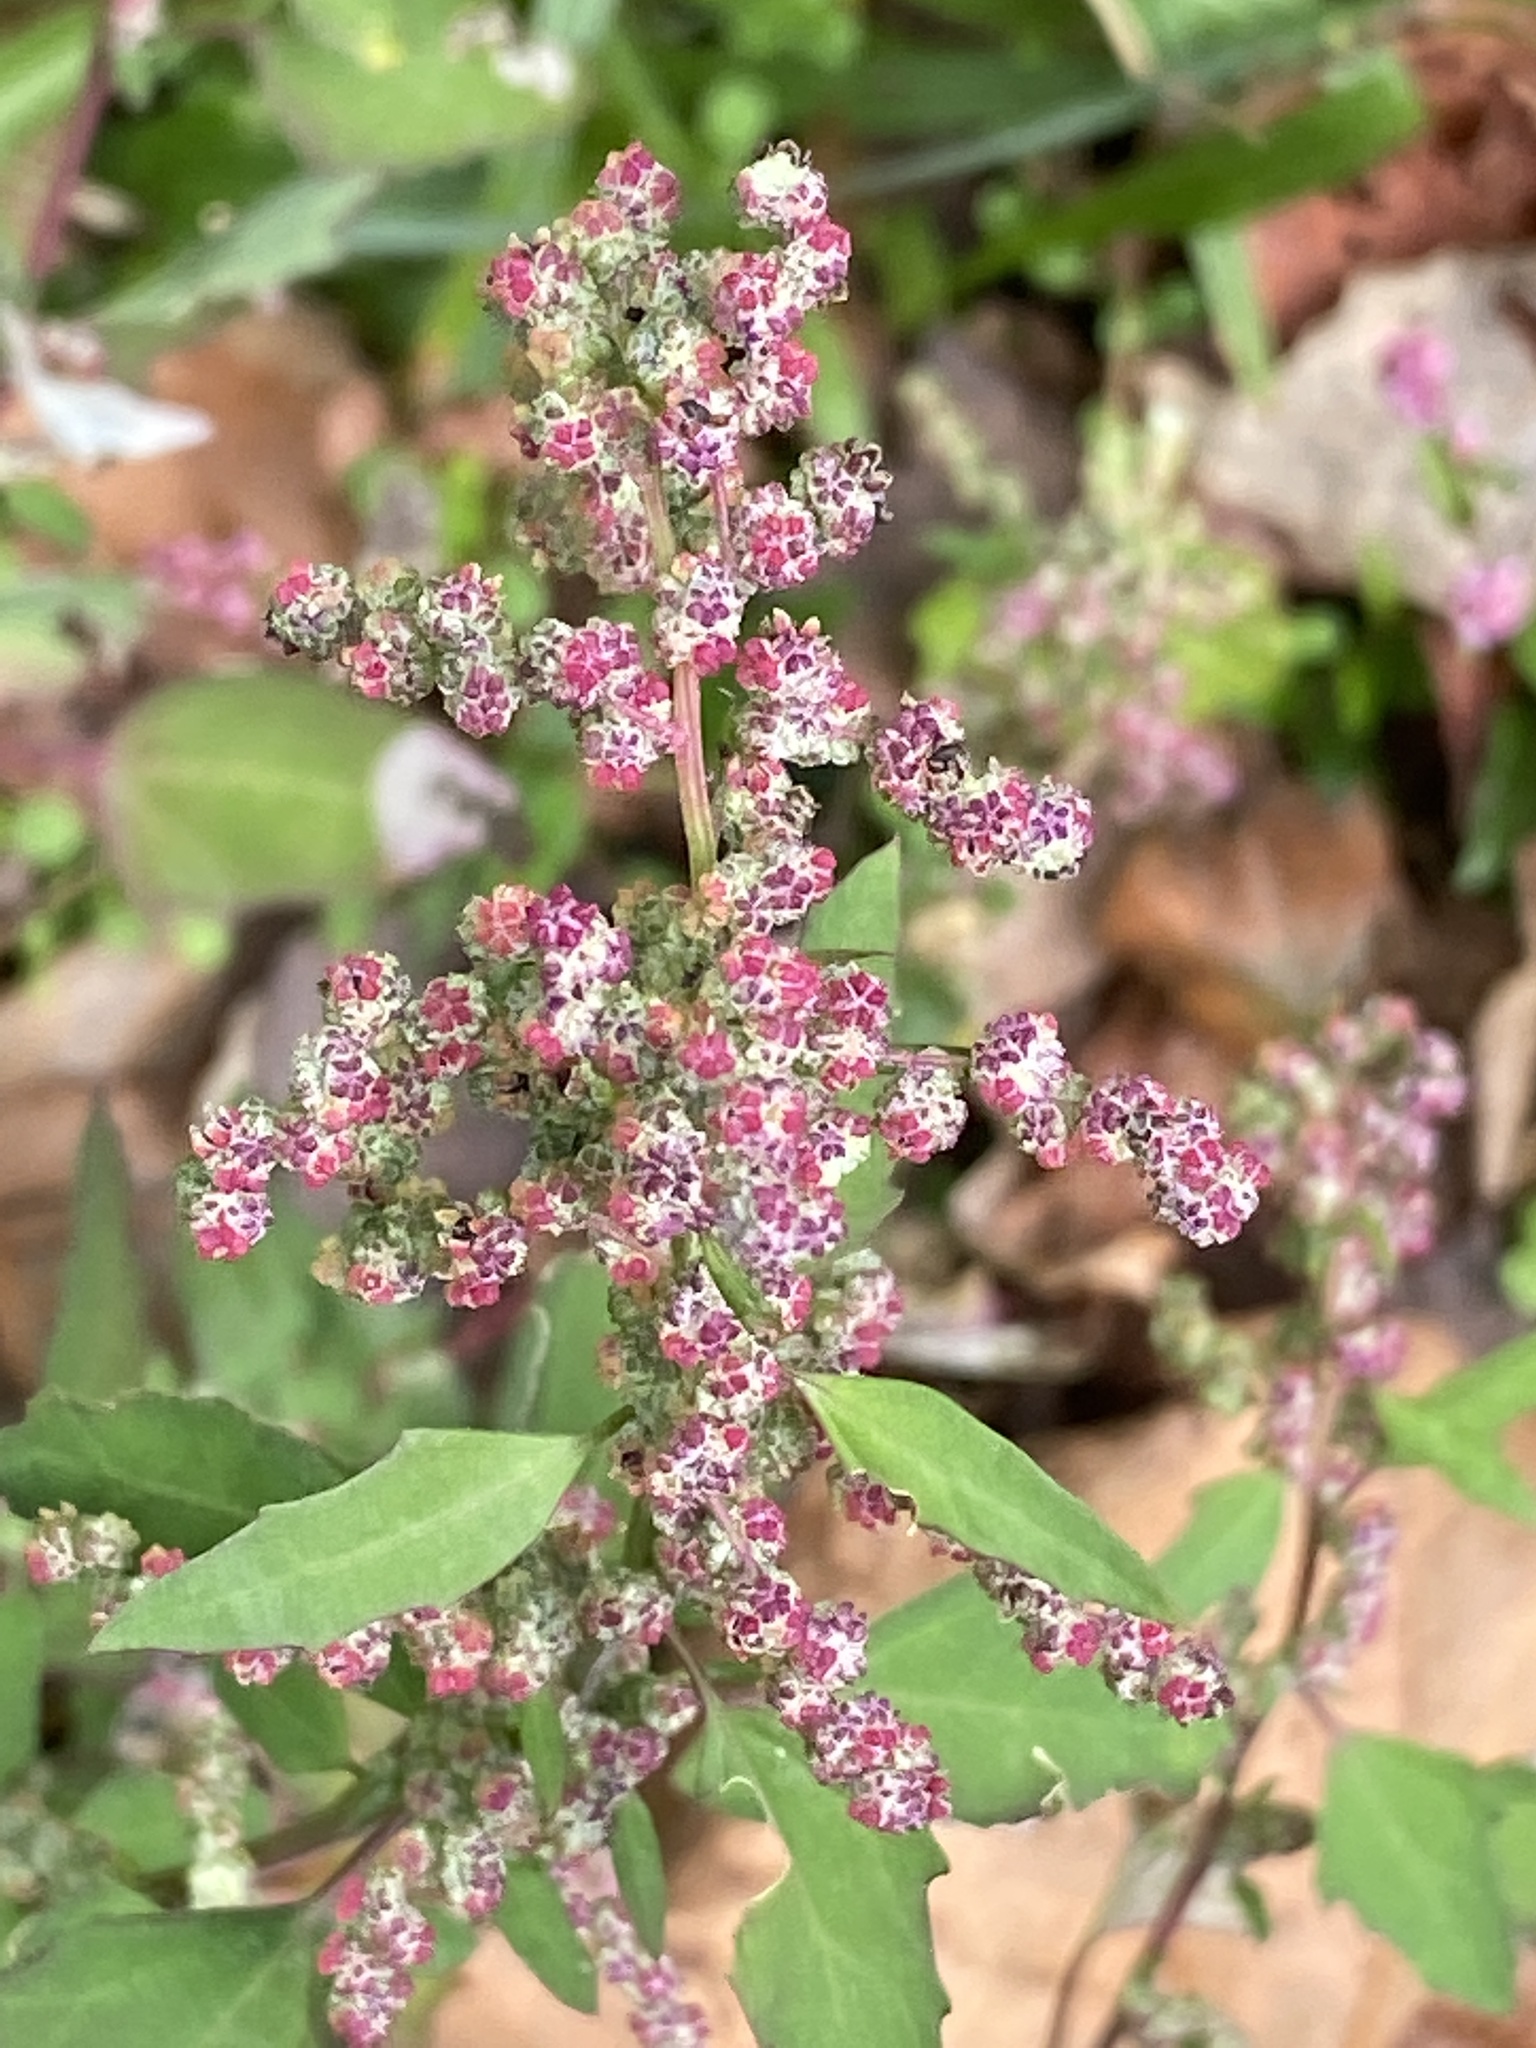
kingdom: Plantae
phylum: Tracheophyta
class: Magnoliopsida
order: Caryophyllales
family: Amaranthaceae
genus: Chenopodium
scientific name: Chenopodium album
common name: Fat-hen
